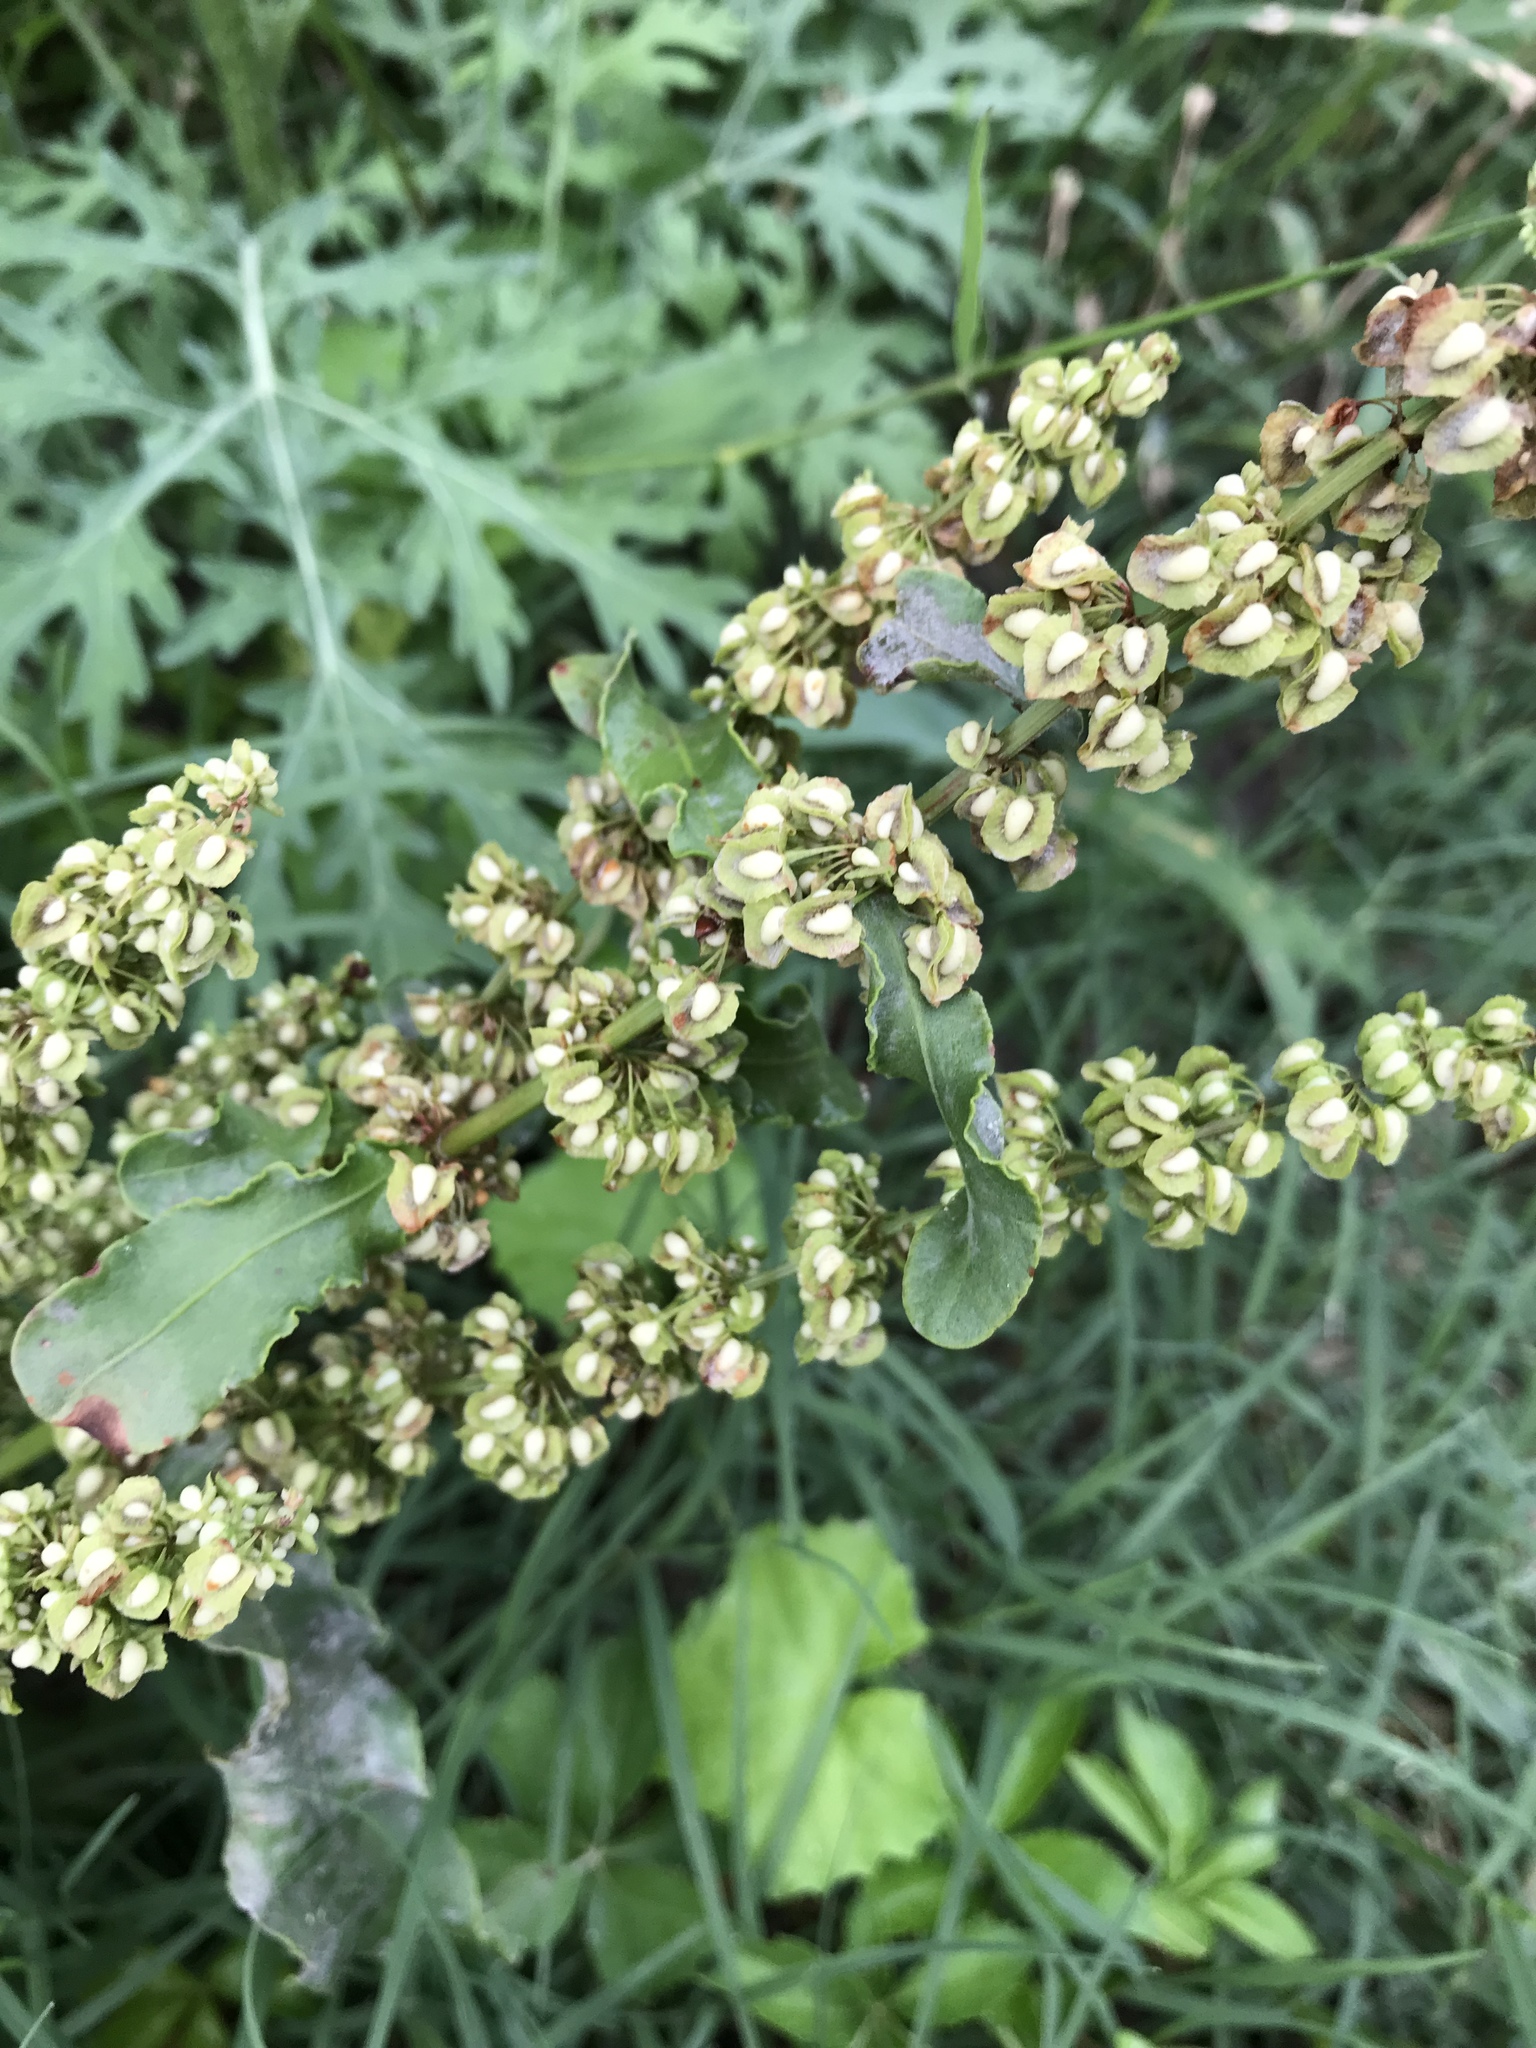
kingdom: Plantae
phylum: Tracheophyta
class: Magnoliopsida
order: Caryophyllales
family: Polygonaceae
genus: Rumex
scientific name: Rumex crispus
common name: Curled dock
